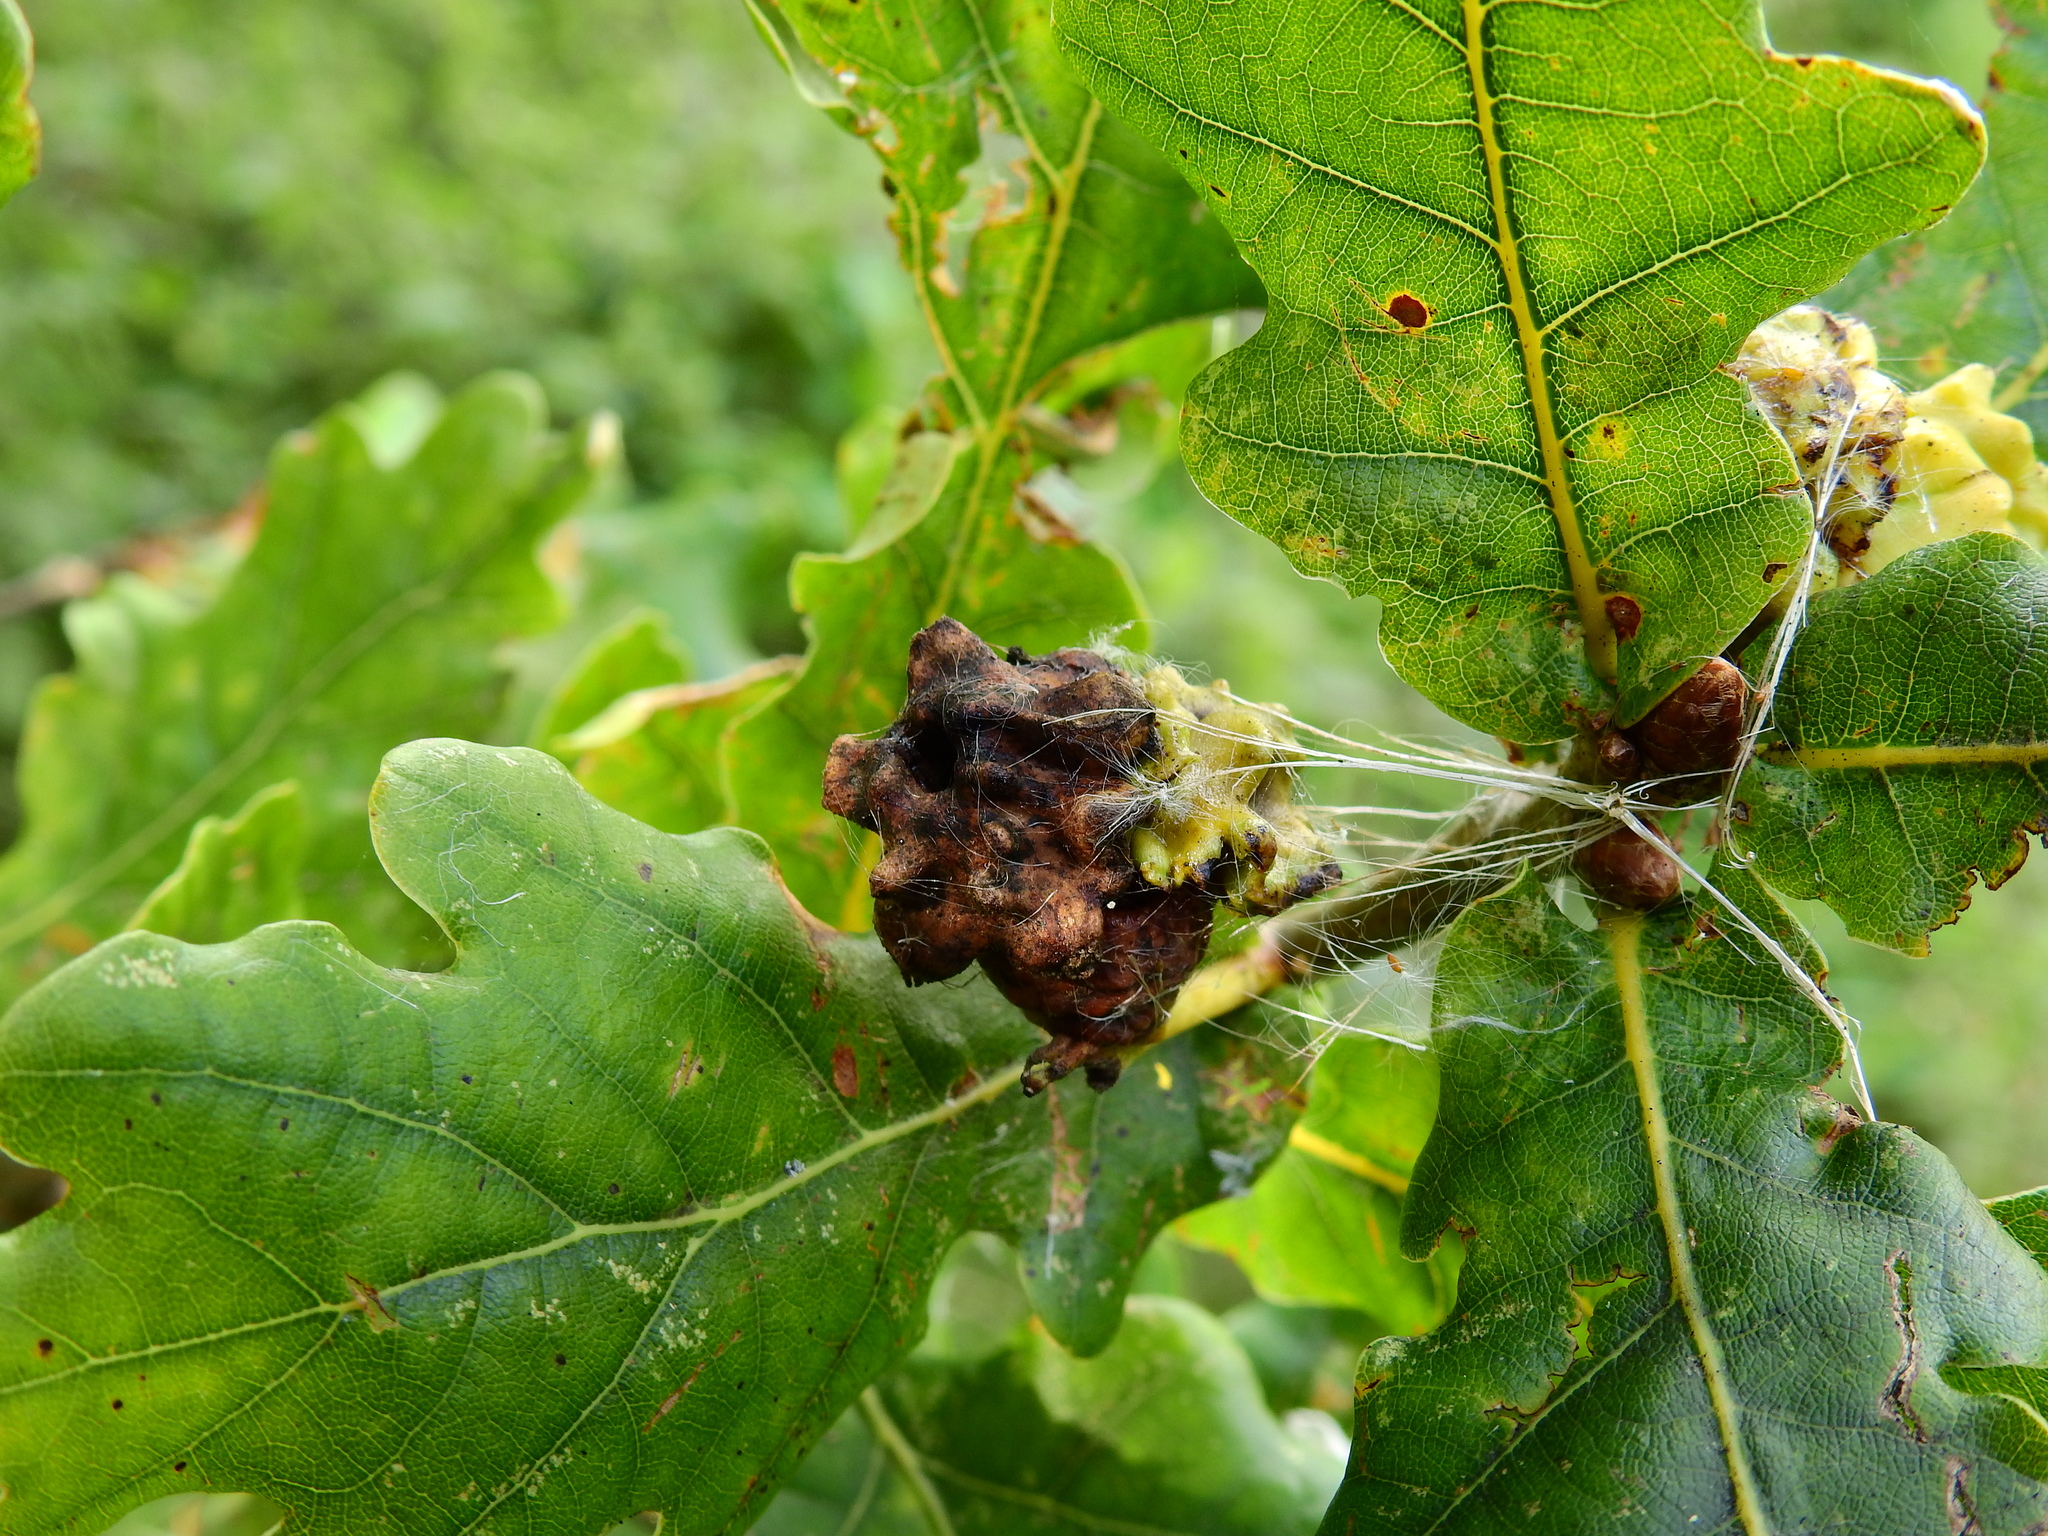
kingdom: Animalia
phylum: Arthropoda
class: Insecta
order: Hymenoptera
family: Cynipidae
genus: Andricus
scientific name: Andricus quercuscalicis
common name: Knopper gall
